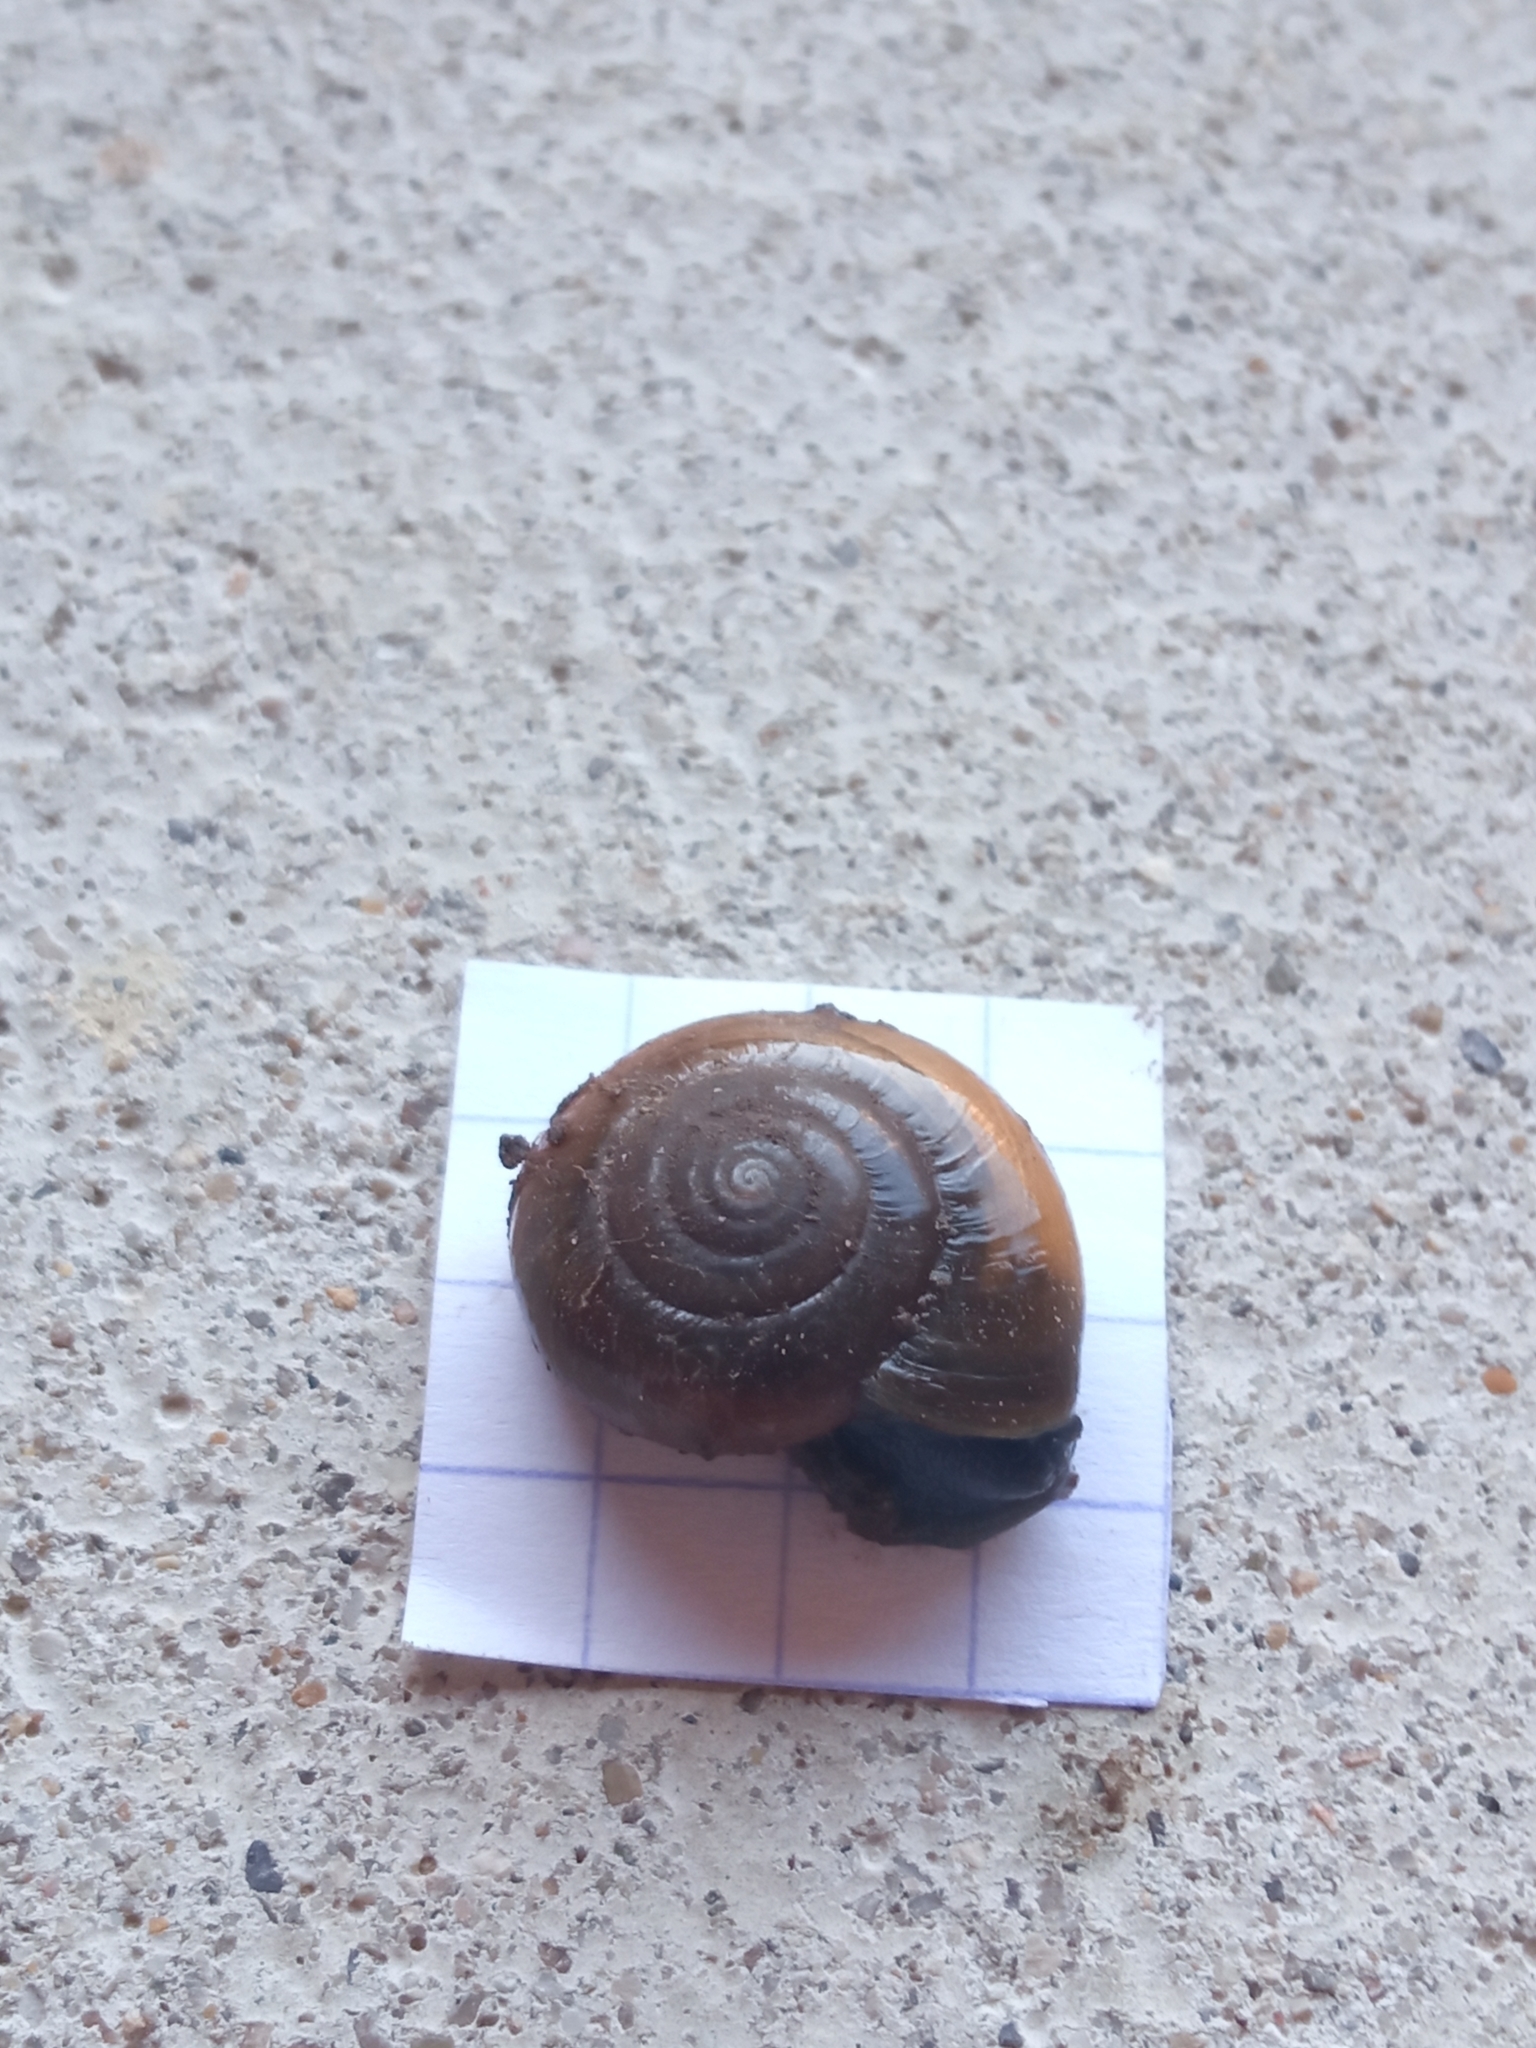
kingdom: Animalia
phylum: Mollusca
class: Gastropoda
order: Stylommatophora
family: Oxychilidae
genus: Oxychilus
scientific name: Oxychilus draparnaudi
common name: Draparnaud's glass snail
